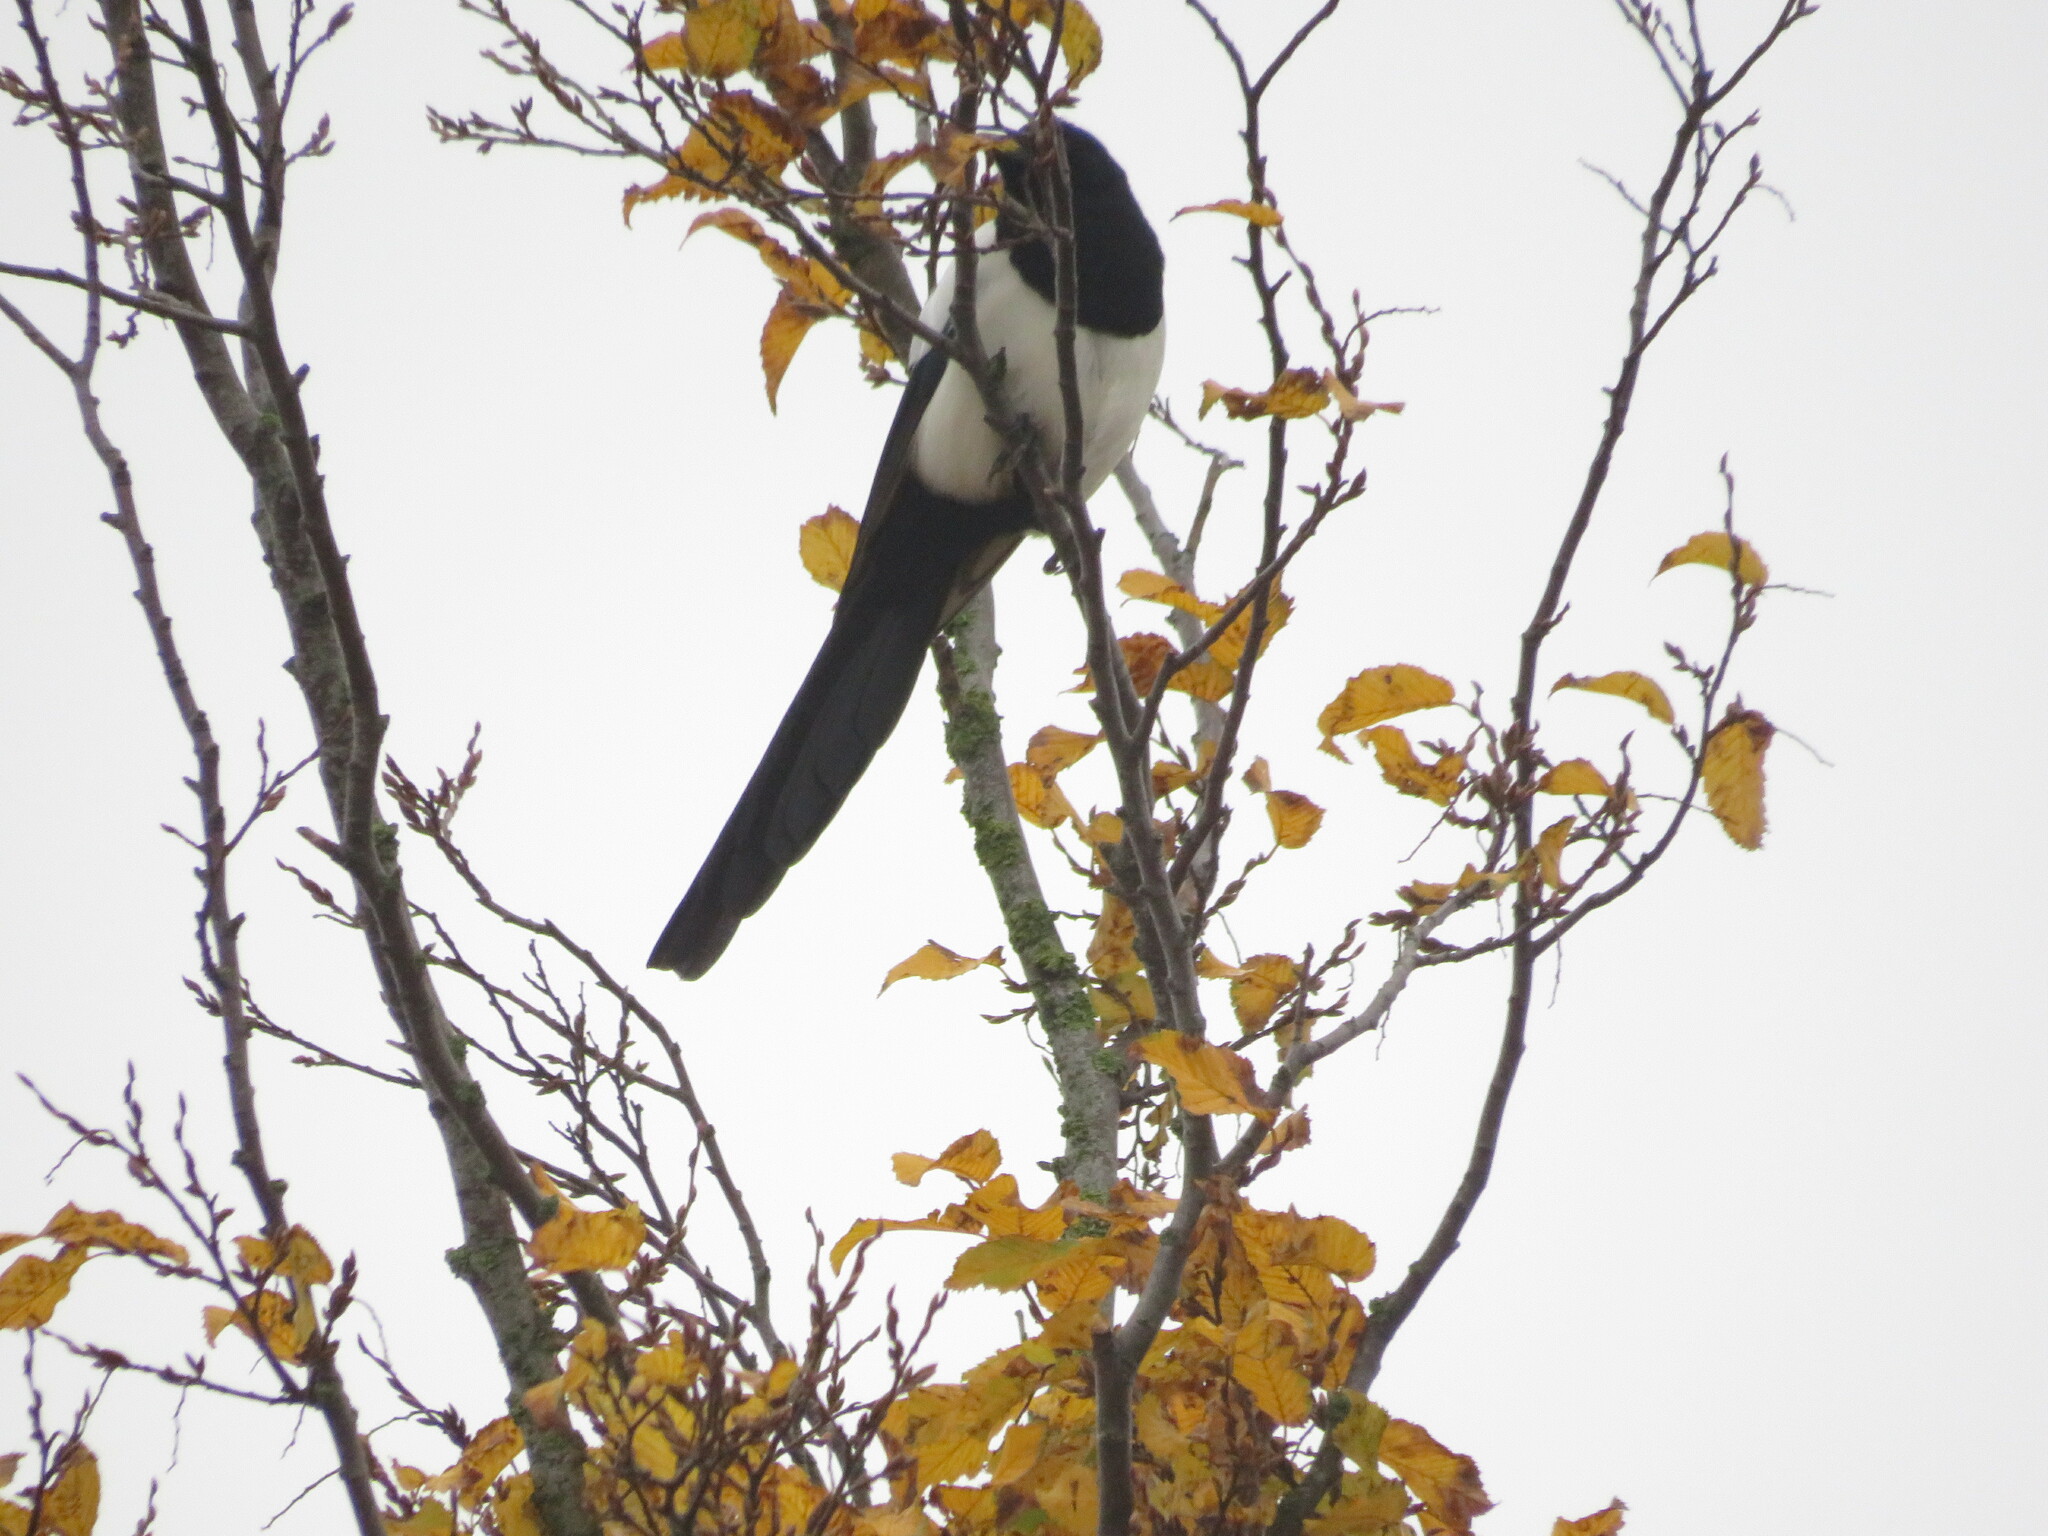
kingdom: Animalia
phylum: Chordata
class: Aves
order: Passeriformes
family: Corvidae
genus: Pica
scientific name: Pica pica
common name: Eurasian magpie
